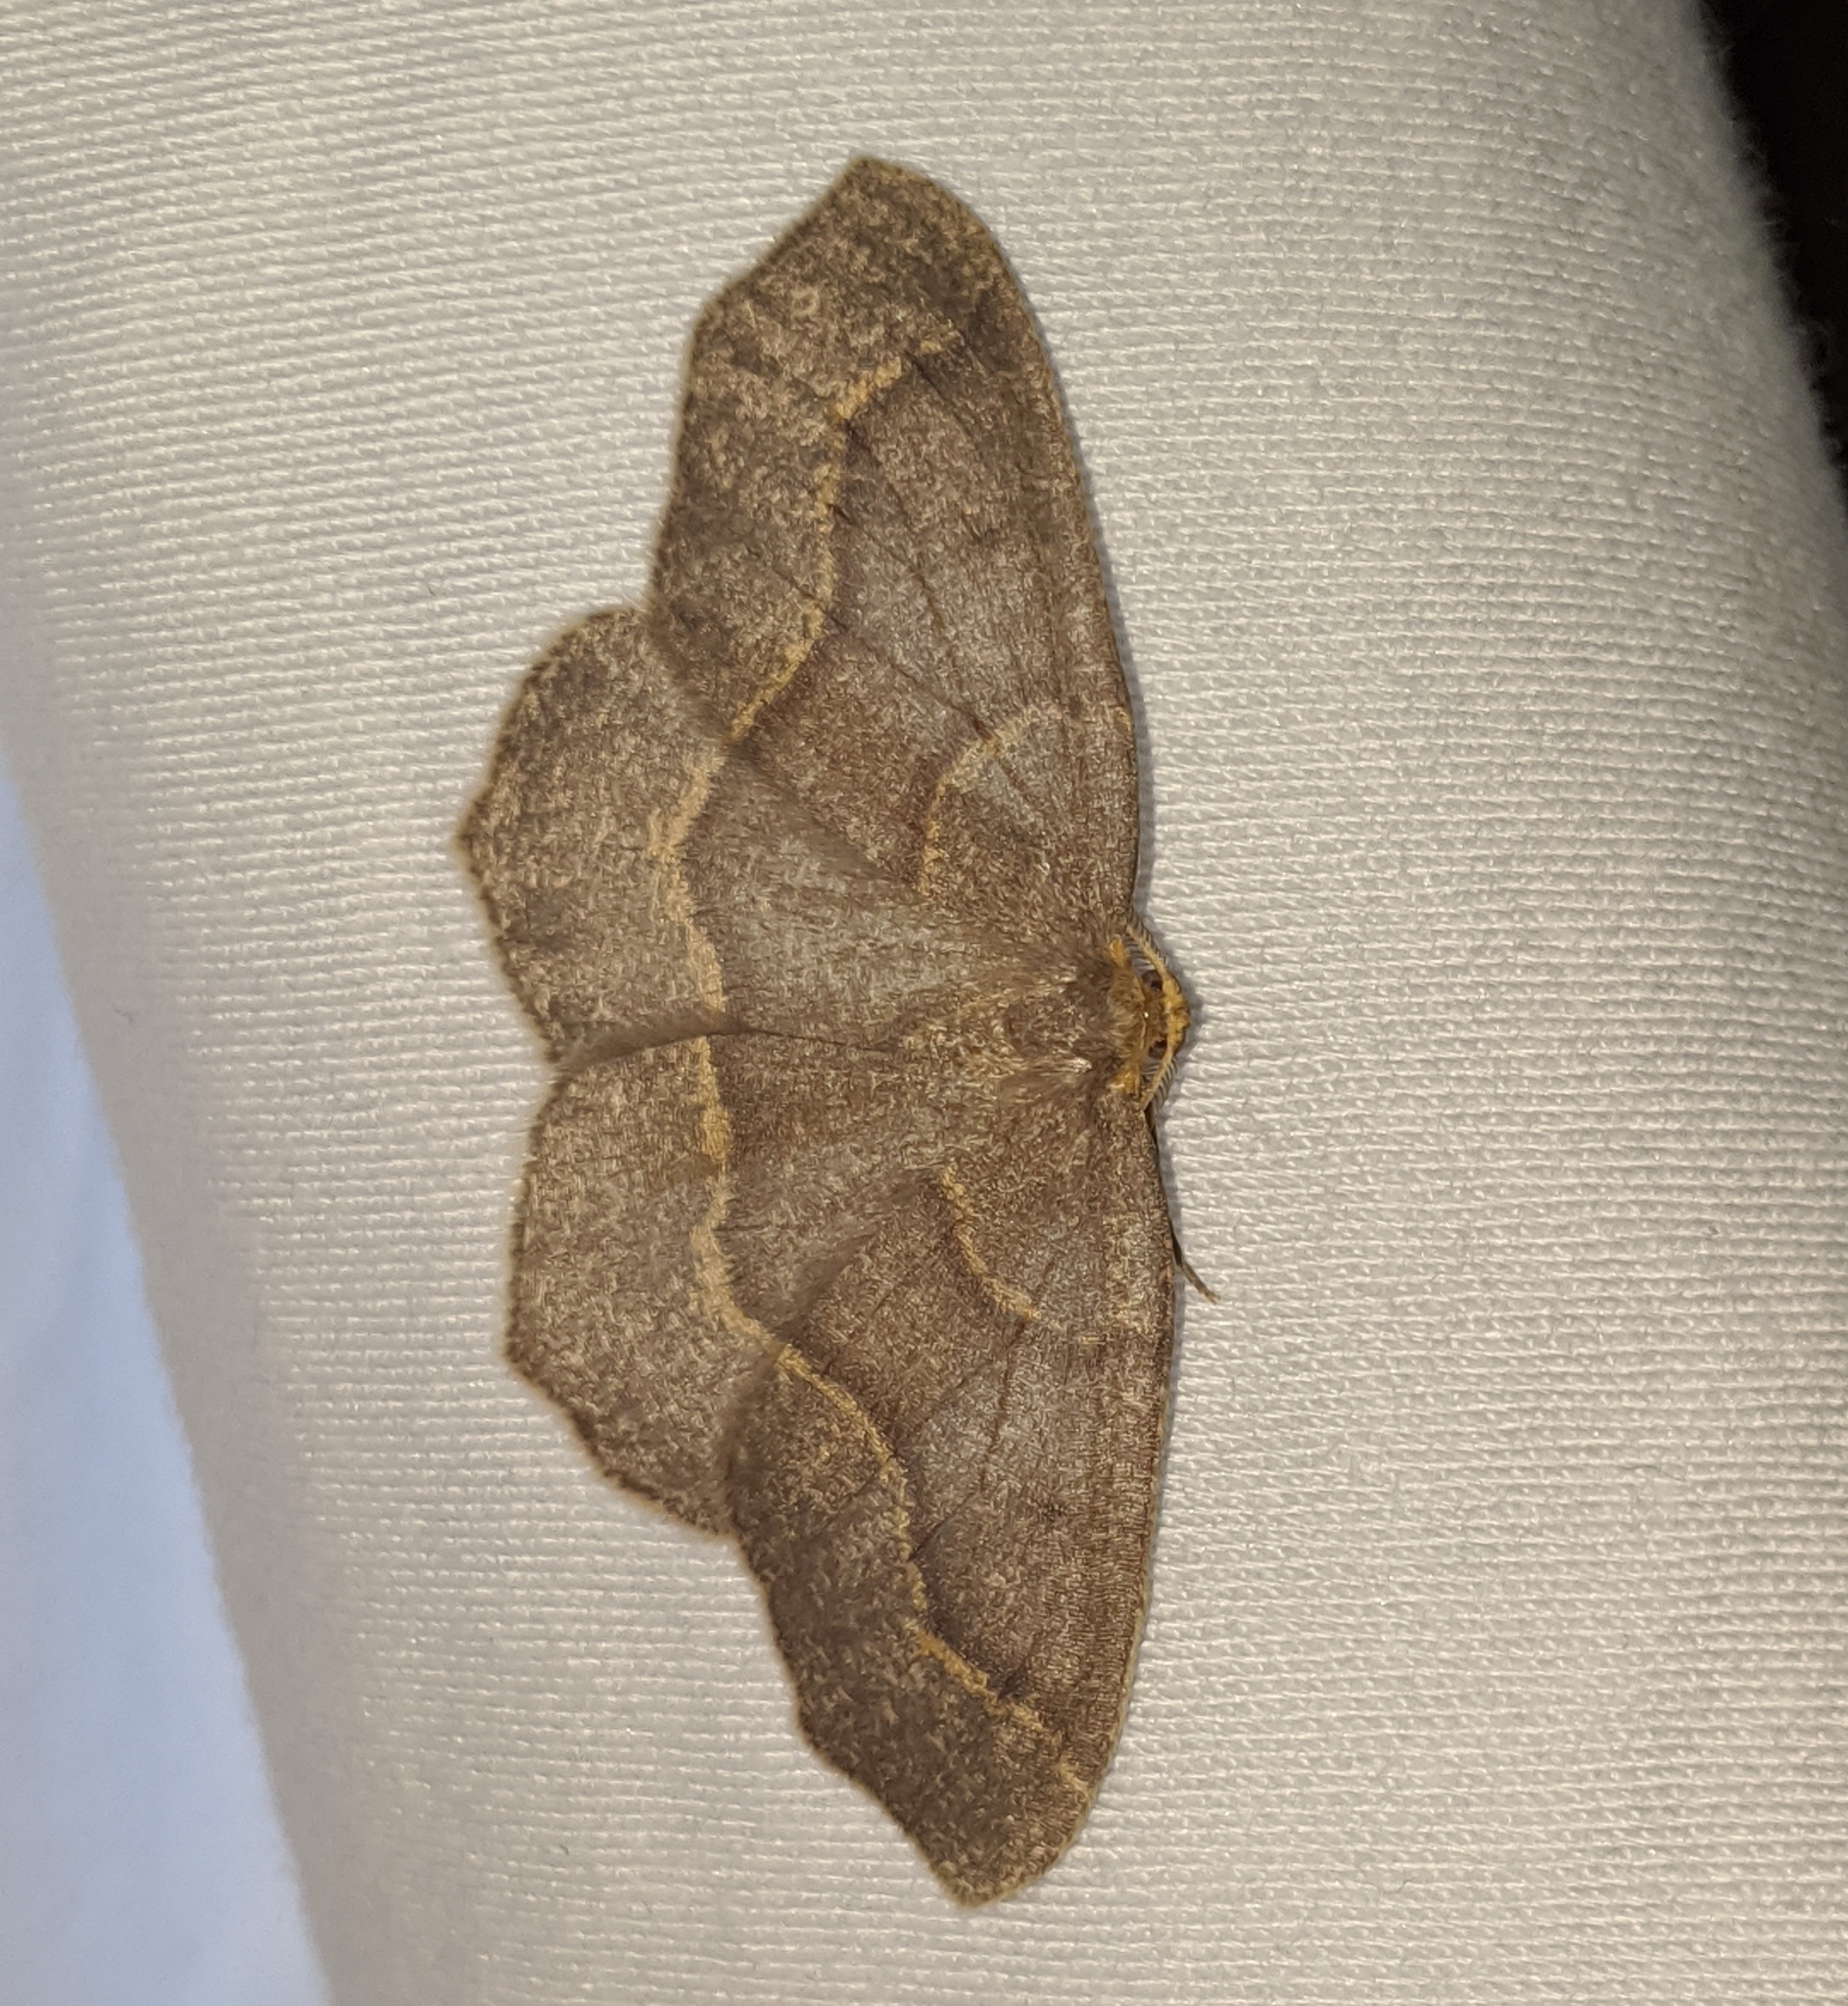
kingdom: Animalia
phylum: Arthropoda
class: Insecta
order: Lepidoptera
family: Geometridae
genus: Lambdina
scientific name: Lambdina fiscellaria
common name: Hemlock looper
